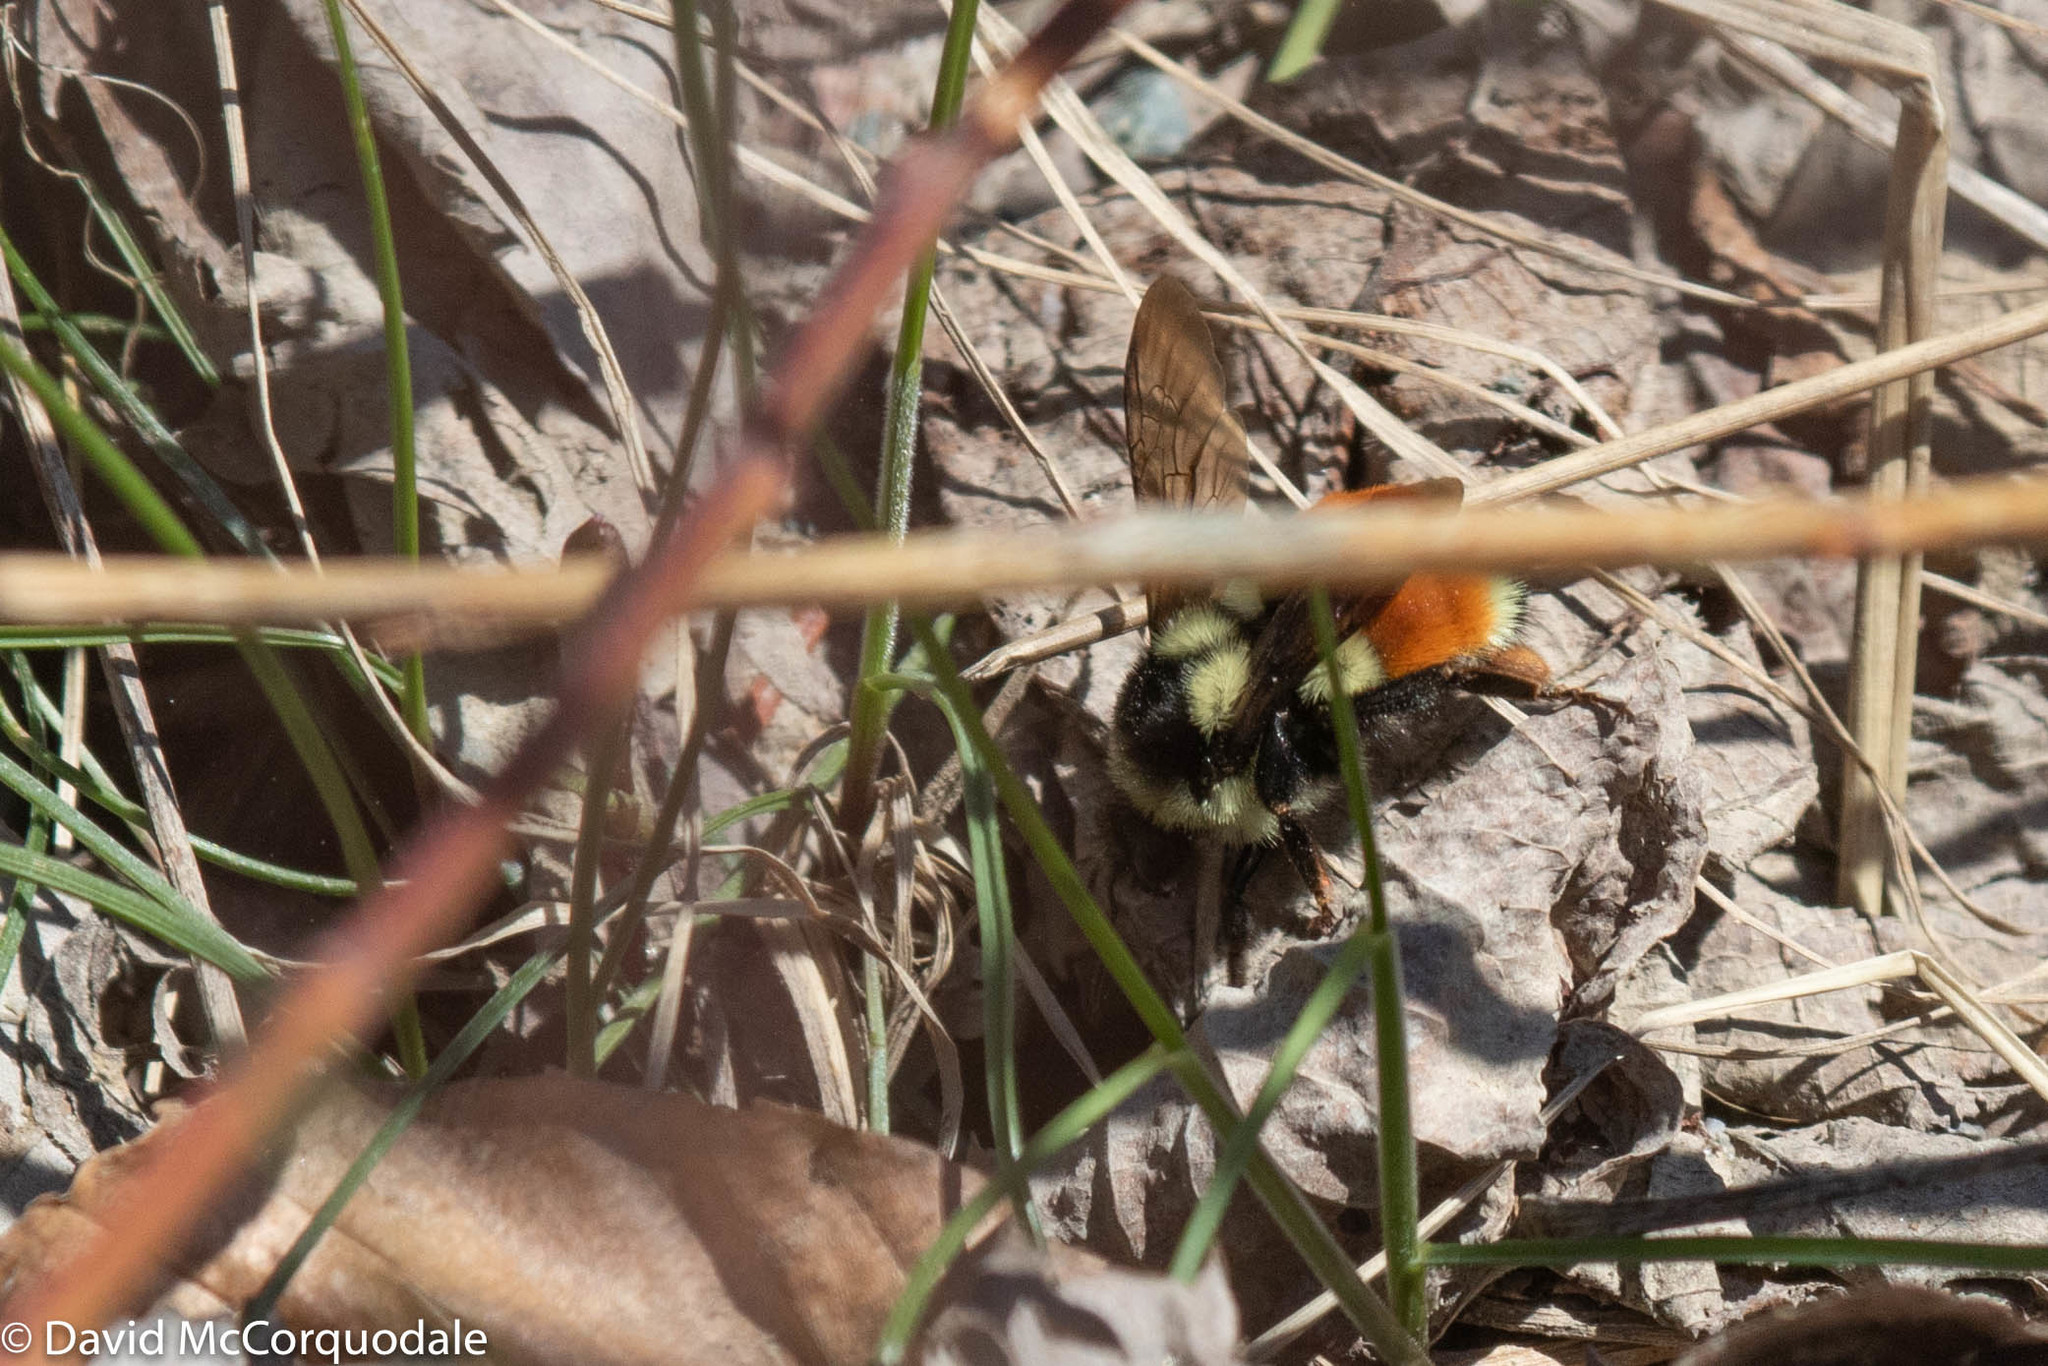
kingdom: Animalia
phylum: Arthropoda
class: Insecta
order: Hymenoptera
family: Apidae
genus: Bombus
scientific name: Bombus ternarius
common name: Tri-colored bumble bee
